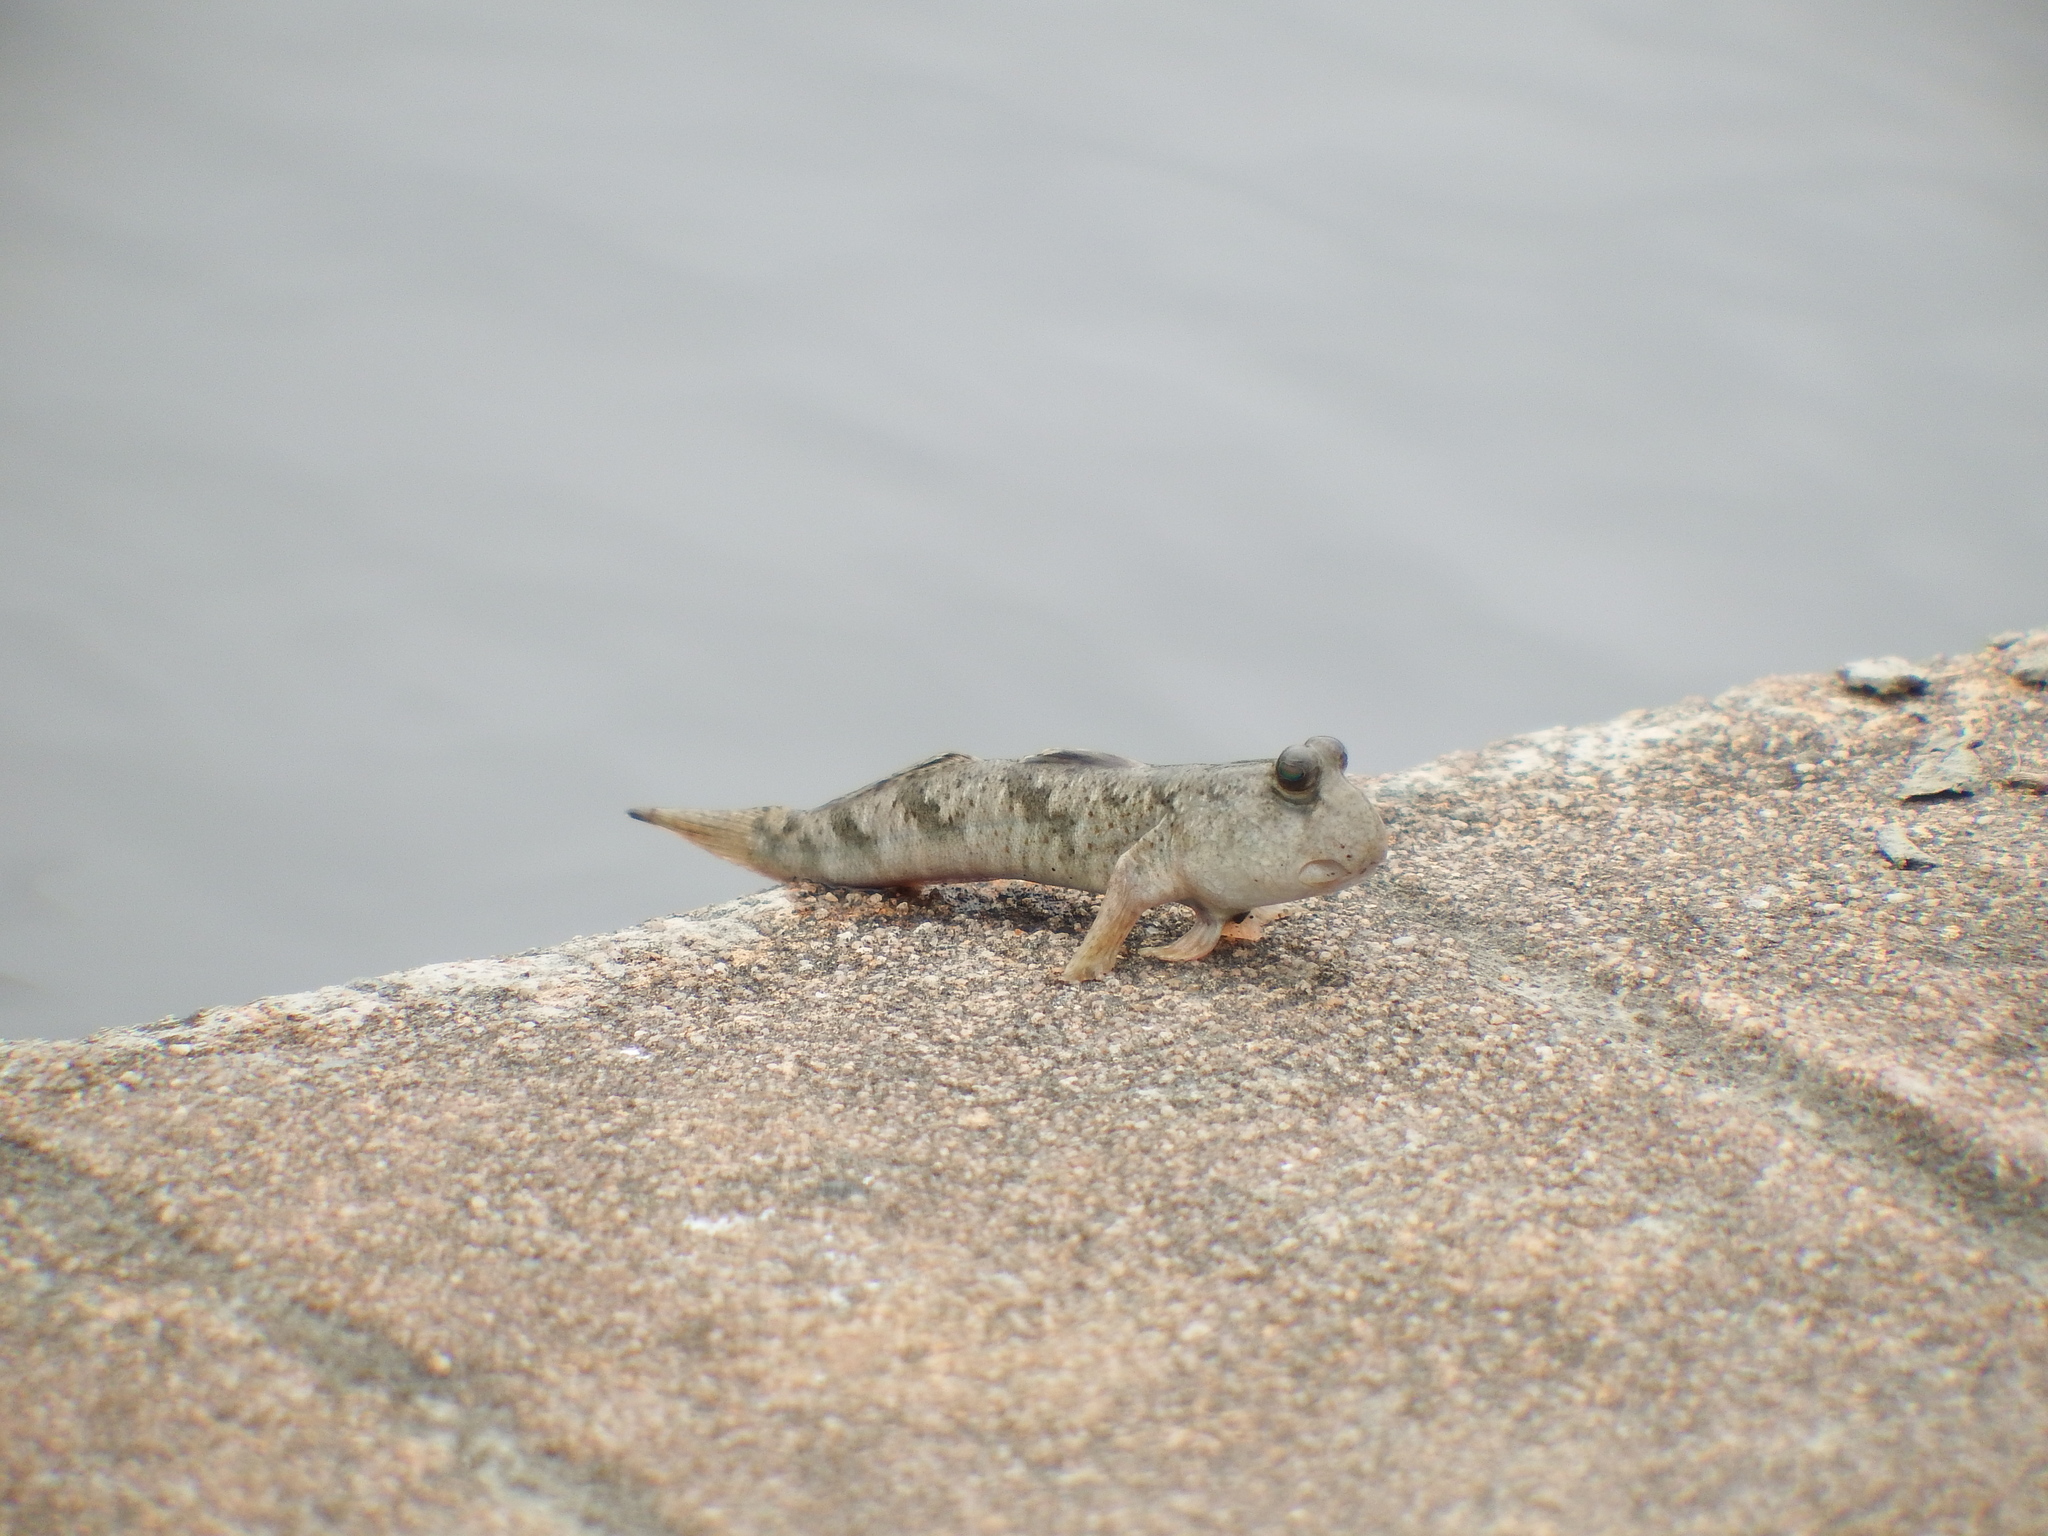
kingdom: Animalia
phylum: Chordata
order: Perciformes
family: Gobiidae
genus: Periophthalmus
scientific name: Periophthalmus modestus
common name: Black goby
